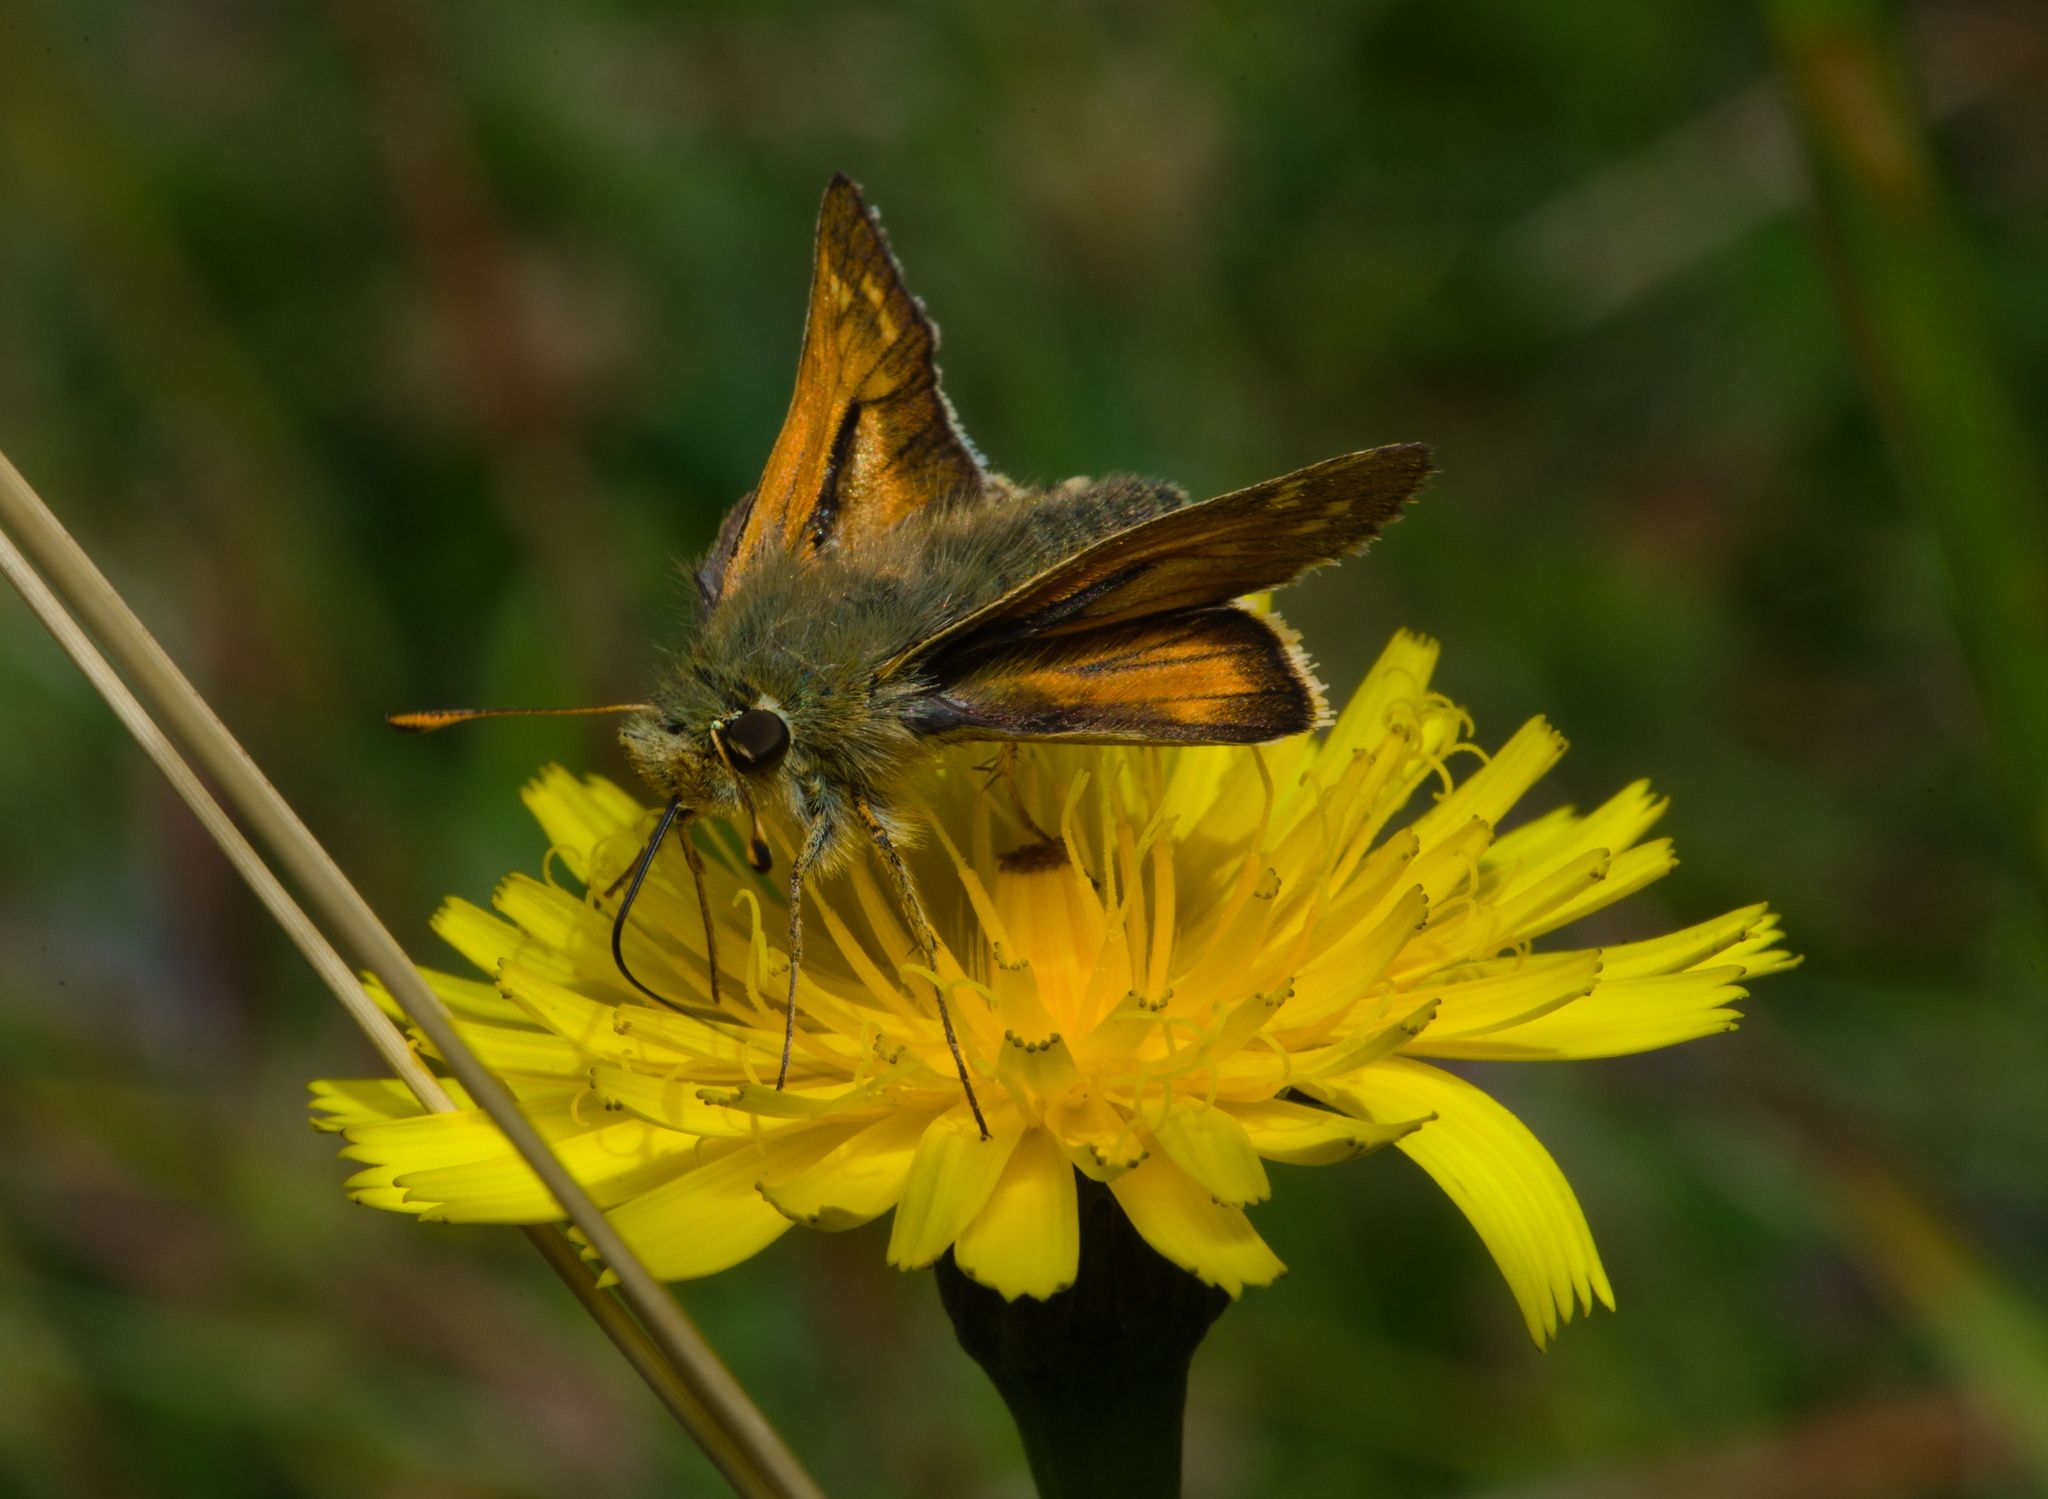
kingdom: Animalia
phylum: Arthropoda
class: Insecta
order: Lepidoptera
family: Hesperiidae
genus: Hesperia
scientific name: Hesperia comma
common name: Common branded skipper
